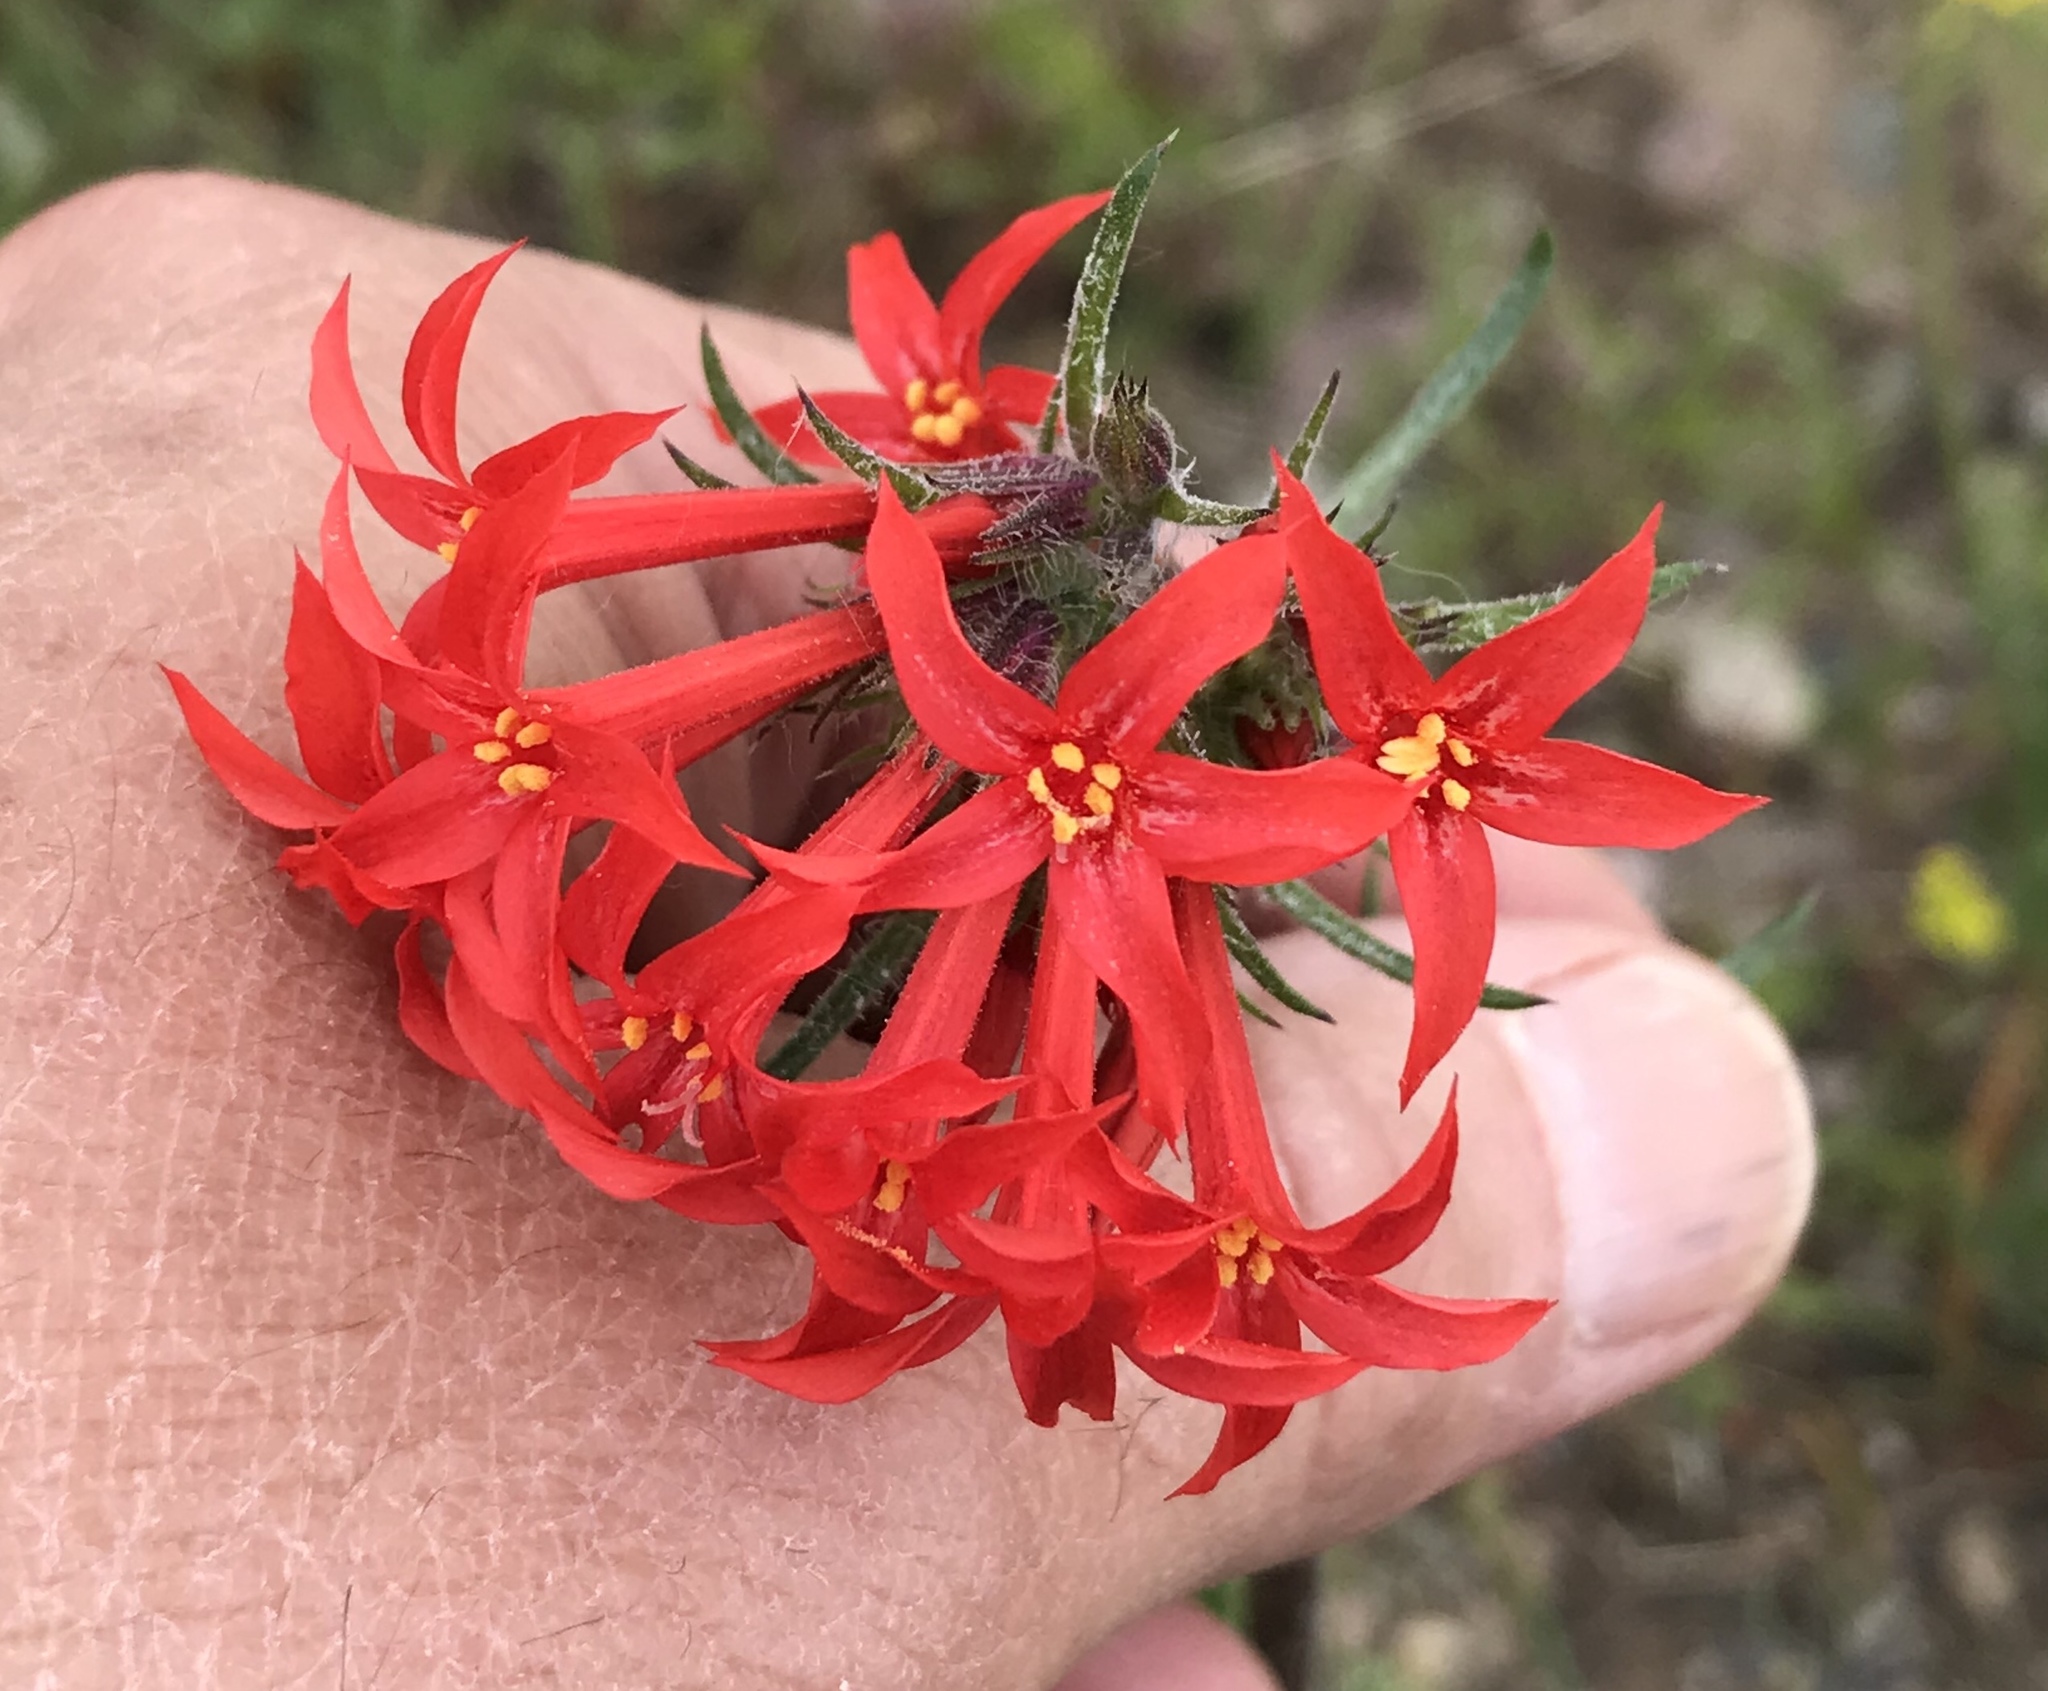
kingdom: Plantae
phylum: Tracheophyta
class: Magnoliopsida
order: Ericales
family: Polemoniaceae
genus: Ipomopsis
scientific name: Ipomopsis aggregata
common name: Scarlet gilia
